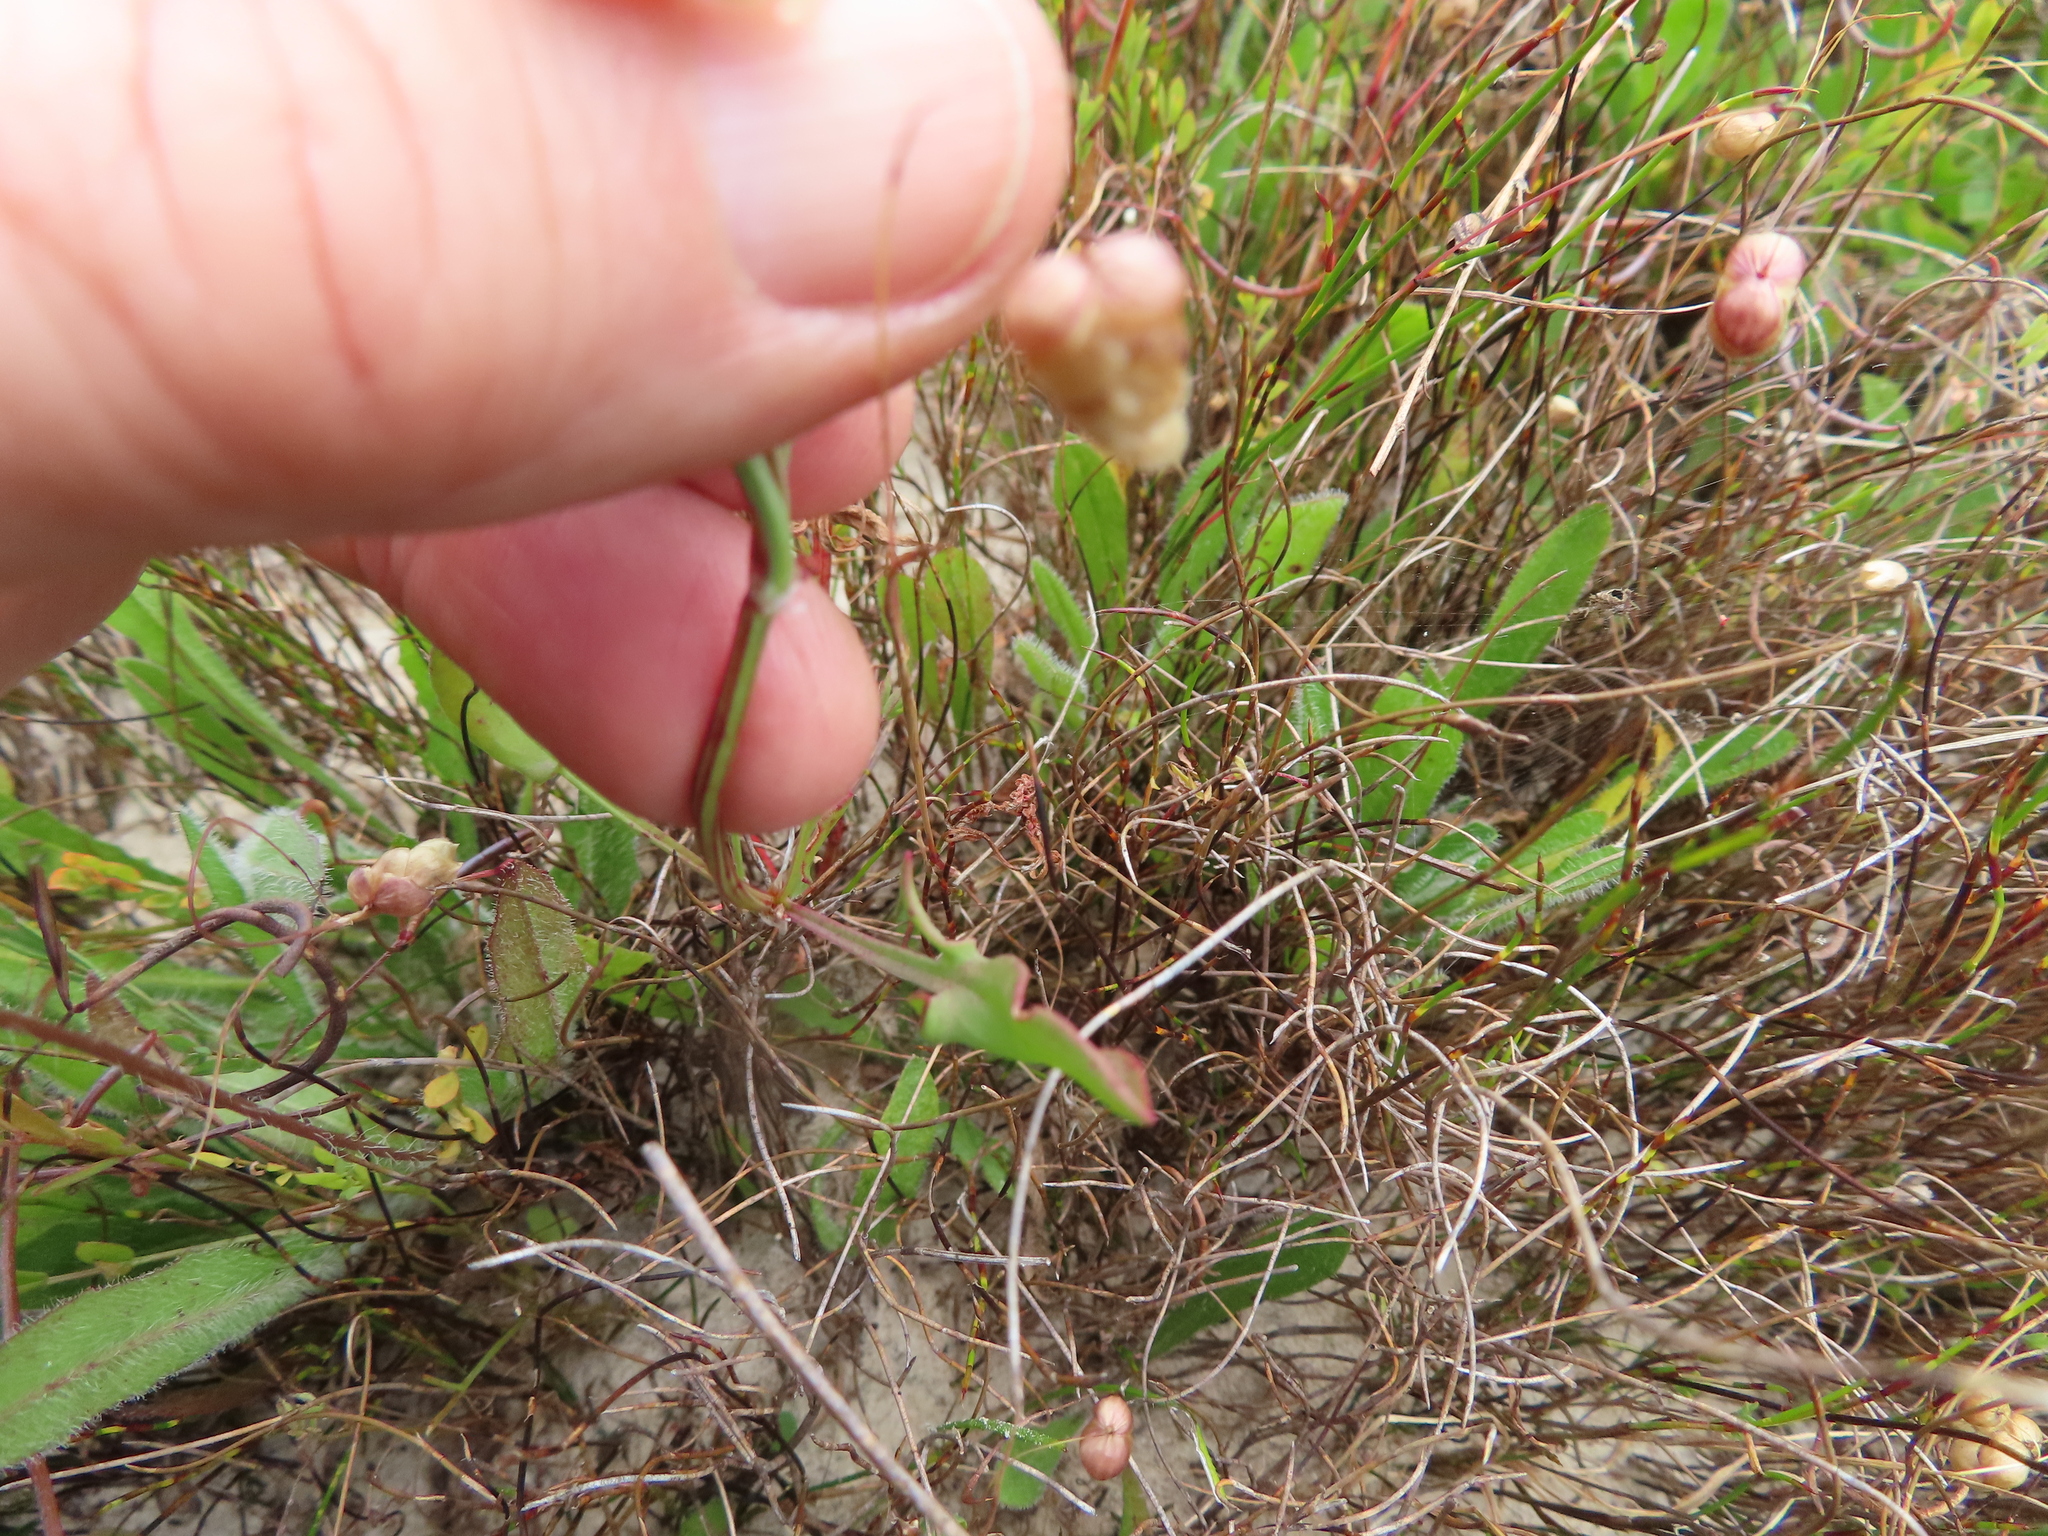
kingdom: Plantae
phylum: Tracheophyta
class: Magnoliopsida
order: Caryophyllales
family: Polygonaceae
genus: Rumex
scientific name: Rumex acetosella
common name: Common sheep sorrel
